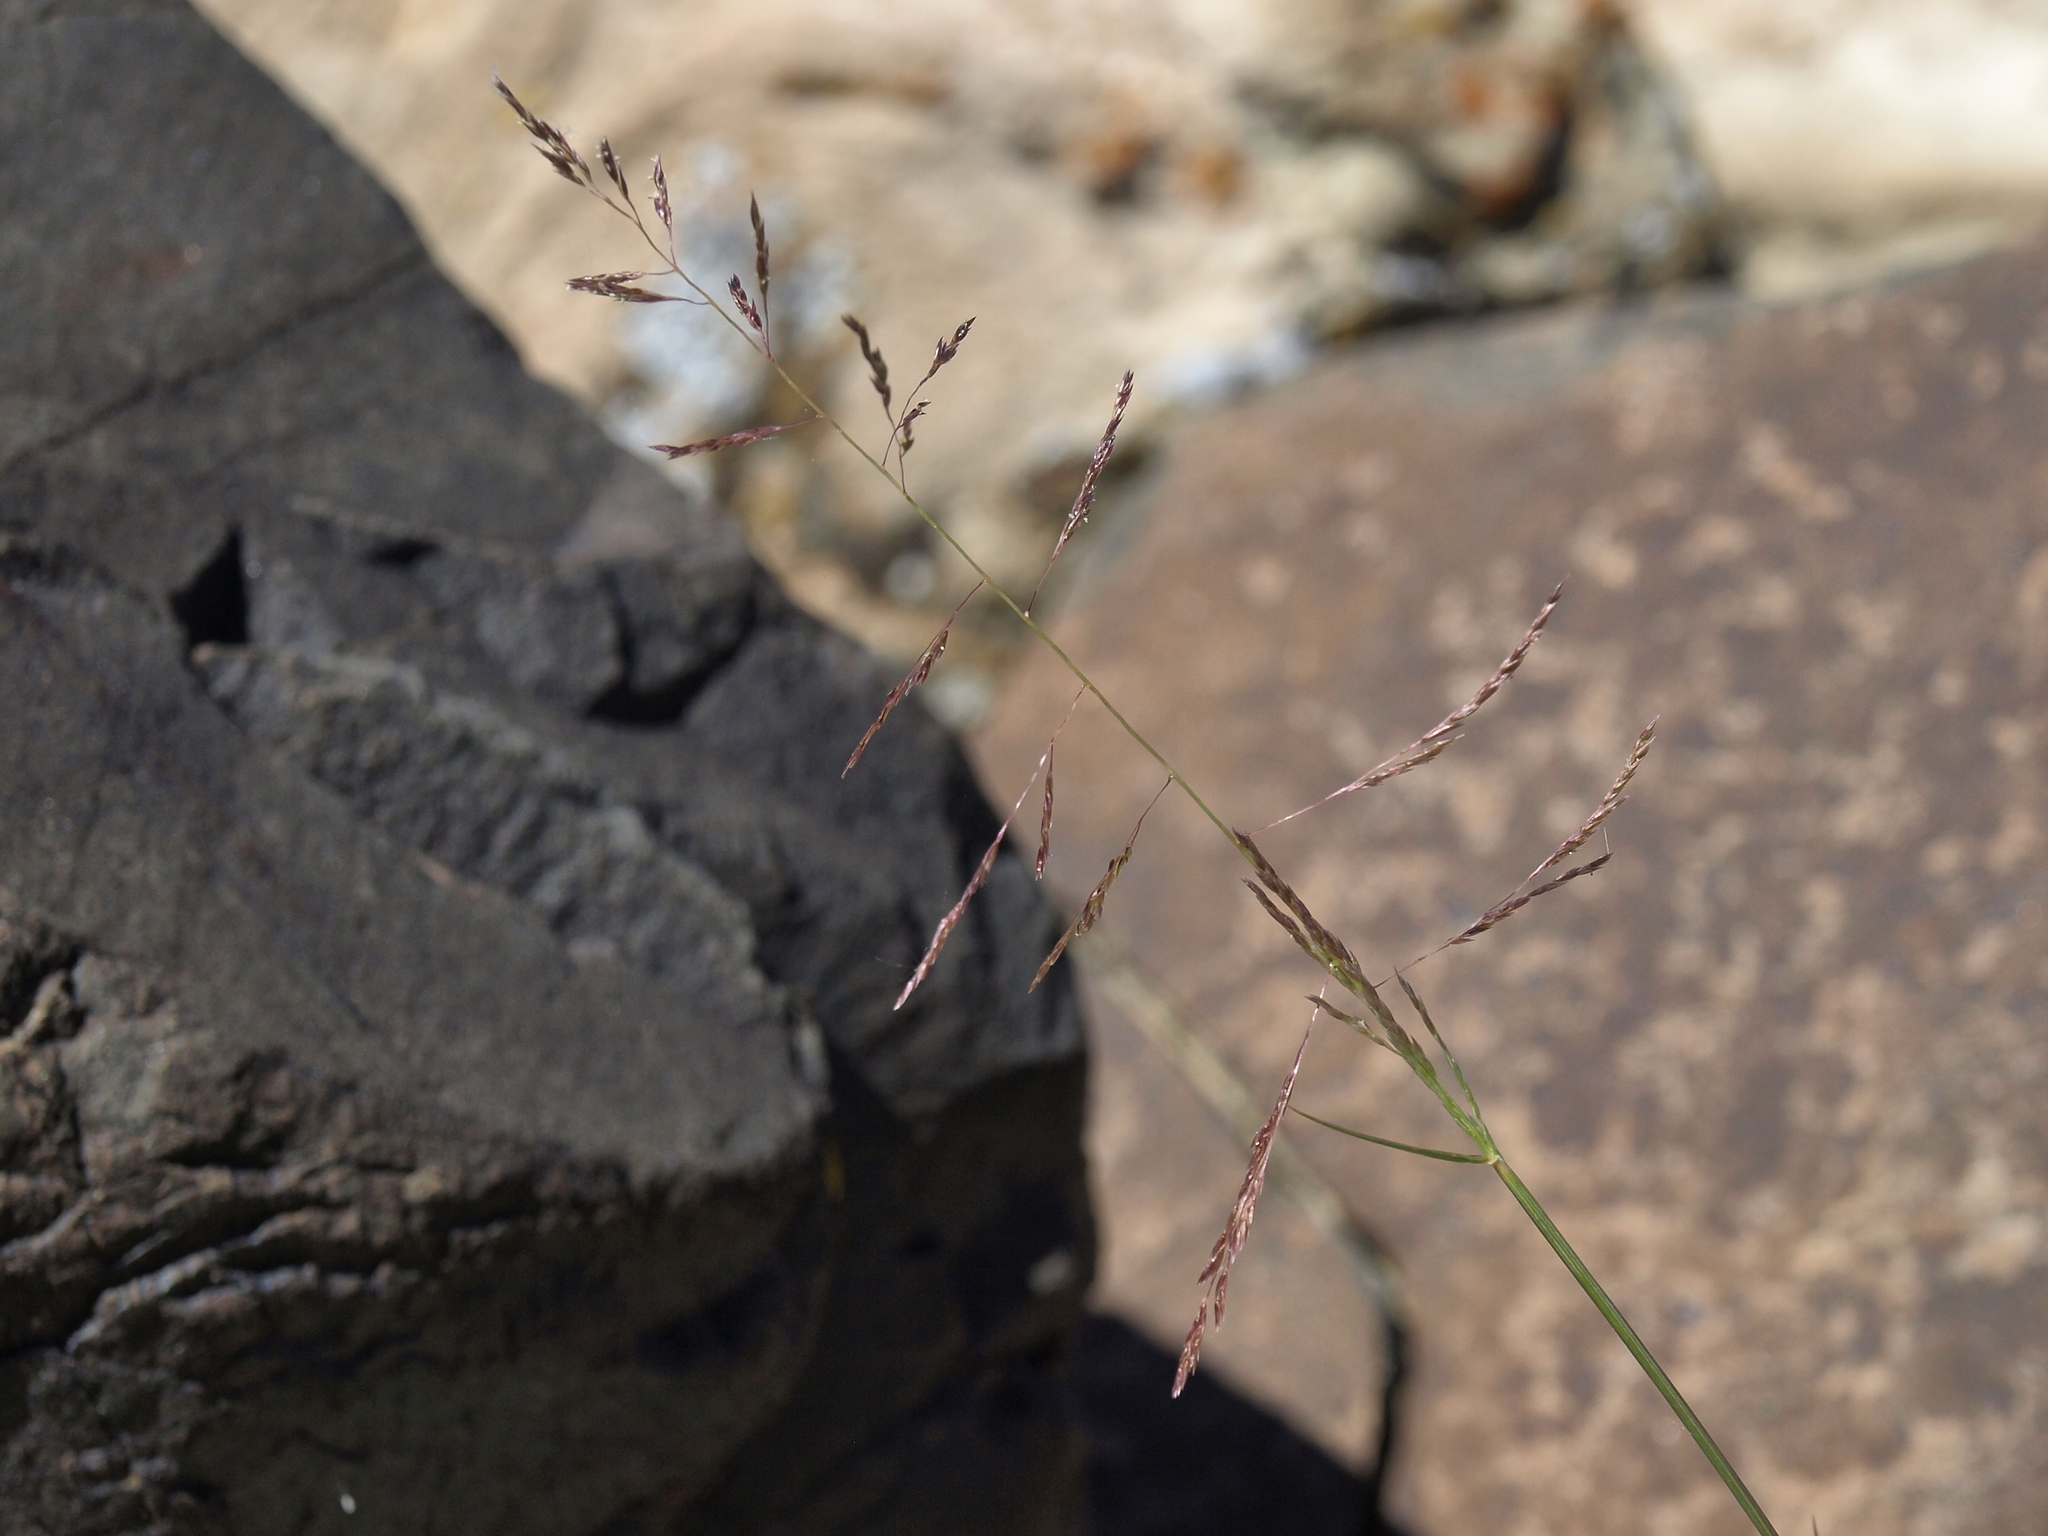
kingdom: Plantae
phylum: Tracheophyta
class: Liliopsida
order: Poales
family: Poaceae
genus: Sporobolus
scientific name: Sporobolus cryptandrus
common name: Sand dropseed
